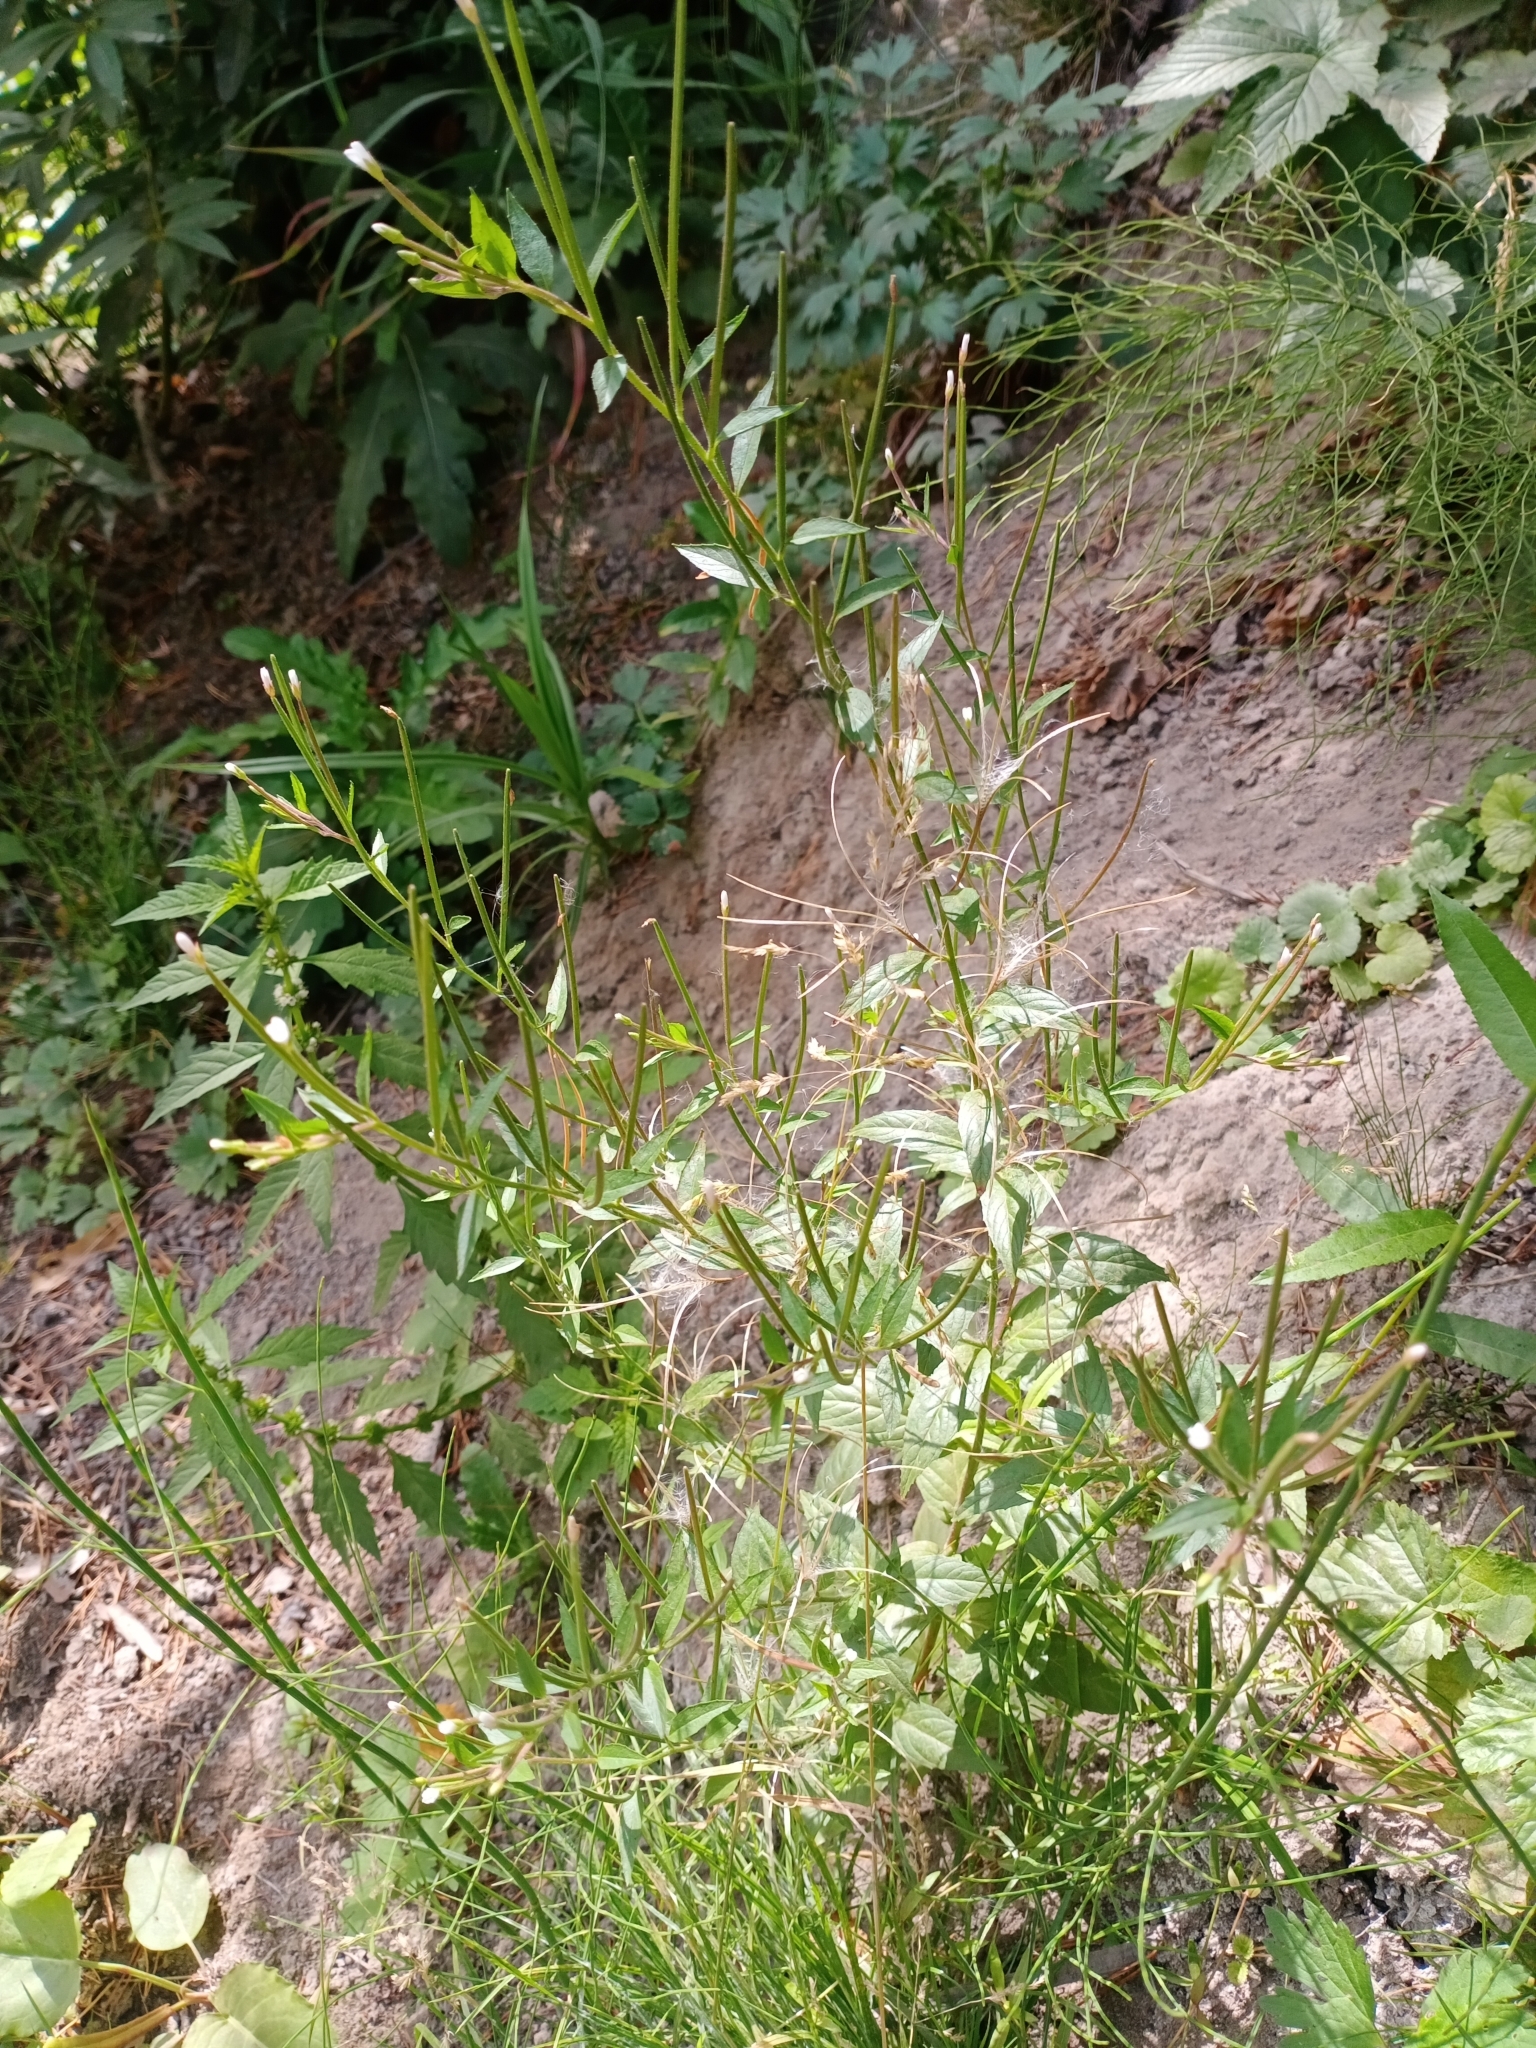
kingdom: Plantae
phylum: Tracheophyta
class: Magnoliopsida
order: Myrtales
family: Onagraceae
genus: Epilobium
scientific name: Epilobium pseudorubescens
